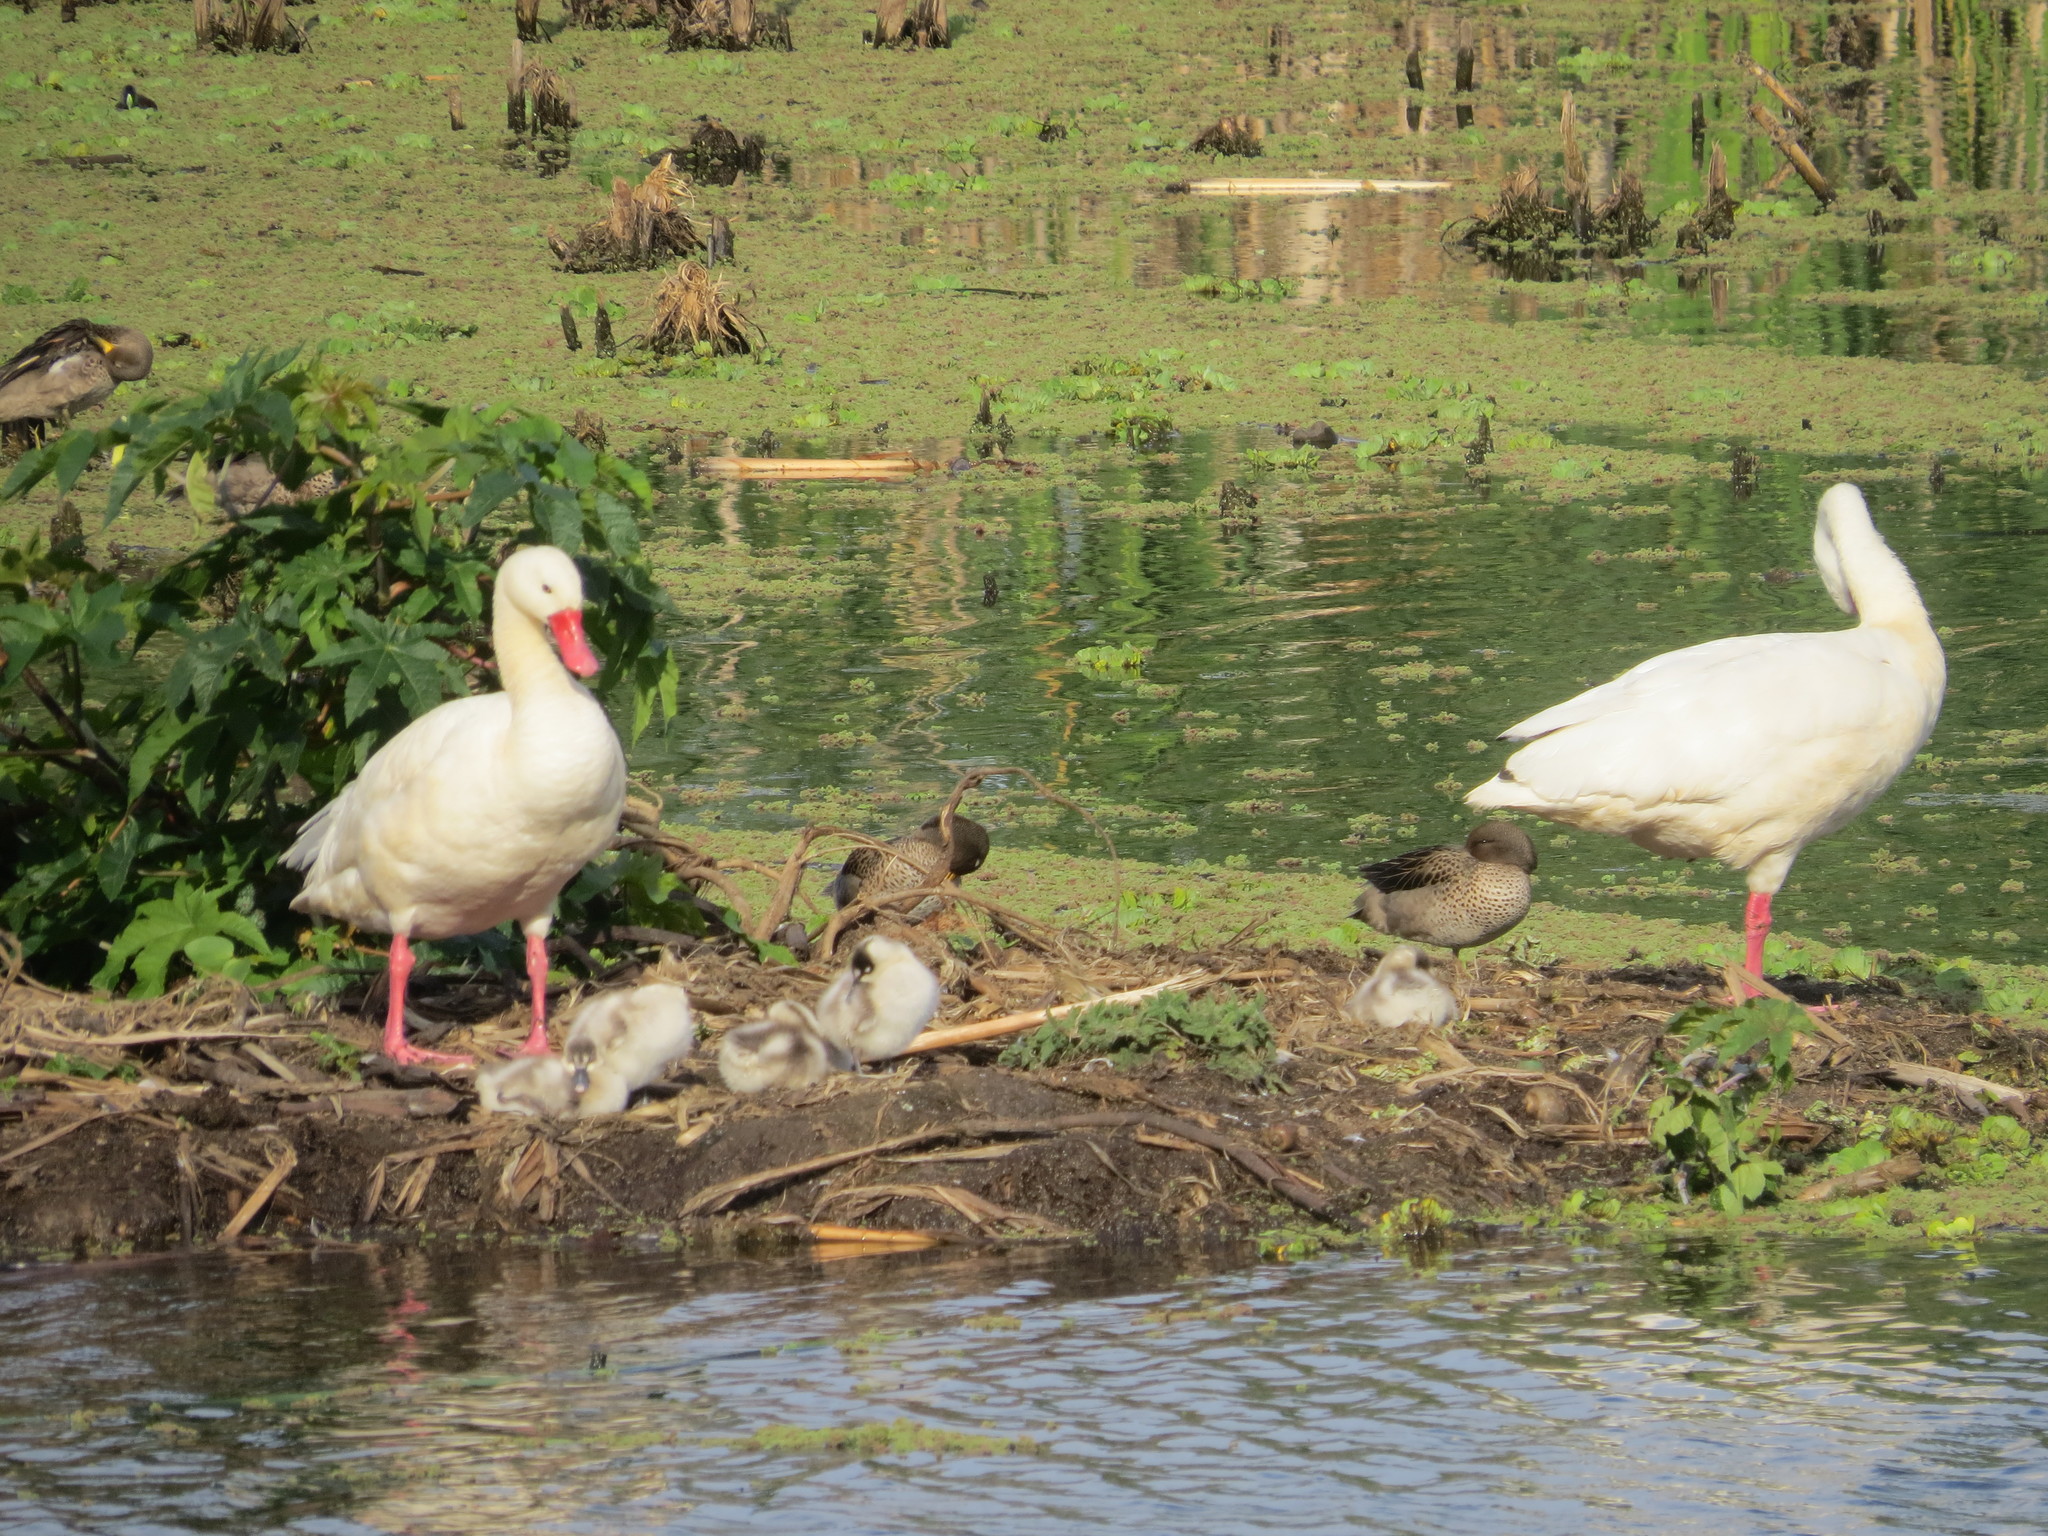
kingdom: Animalia
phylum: Chordata
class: Aves
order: Anseriformes
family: Anatidae
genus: Coscoroba
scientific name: Coscoroba coscoroba
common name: Coscoroba swan
